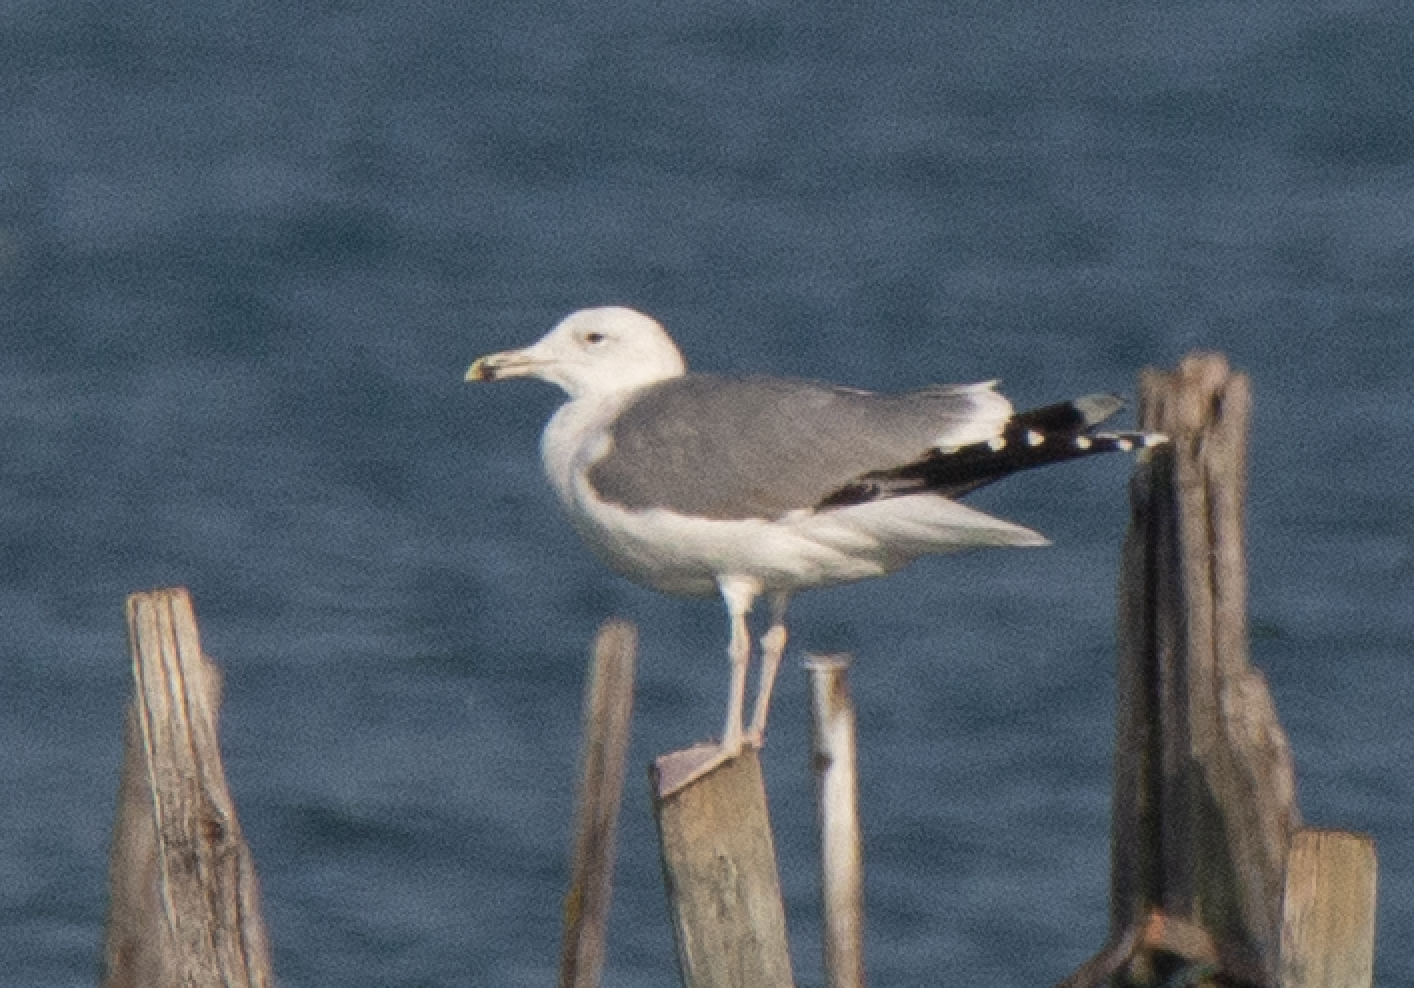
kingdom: Animalia
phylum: Chordata
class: Aves
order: Charadriiformes
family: Laridae
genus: Larus
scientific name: Larus cachinnans
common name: Caspian gull
